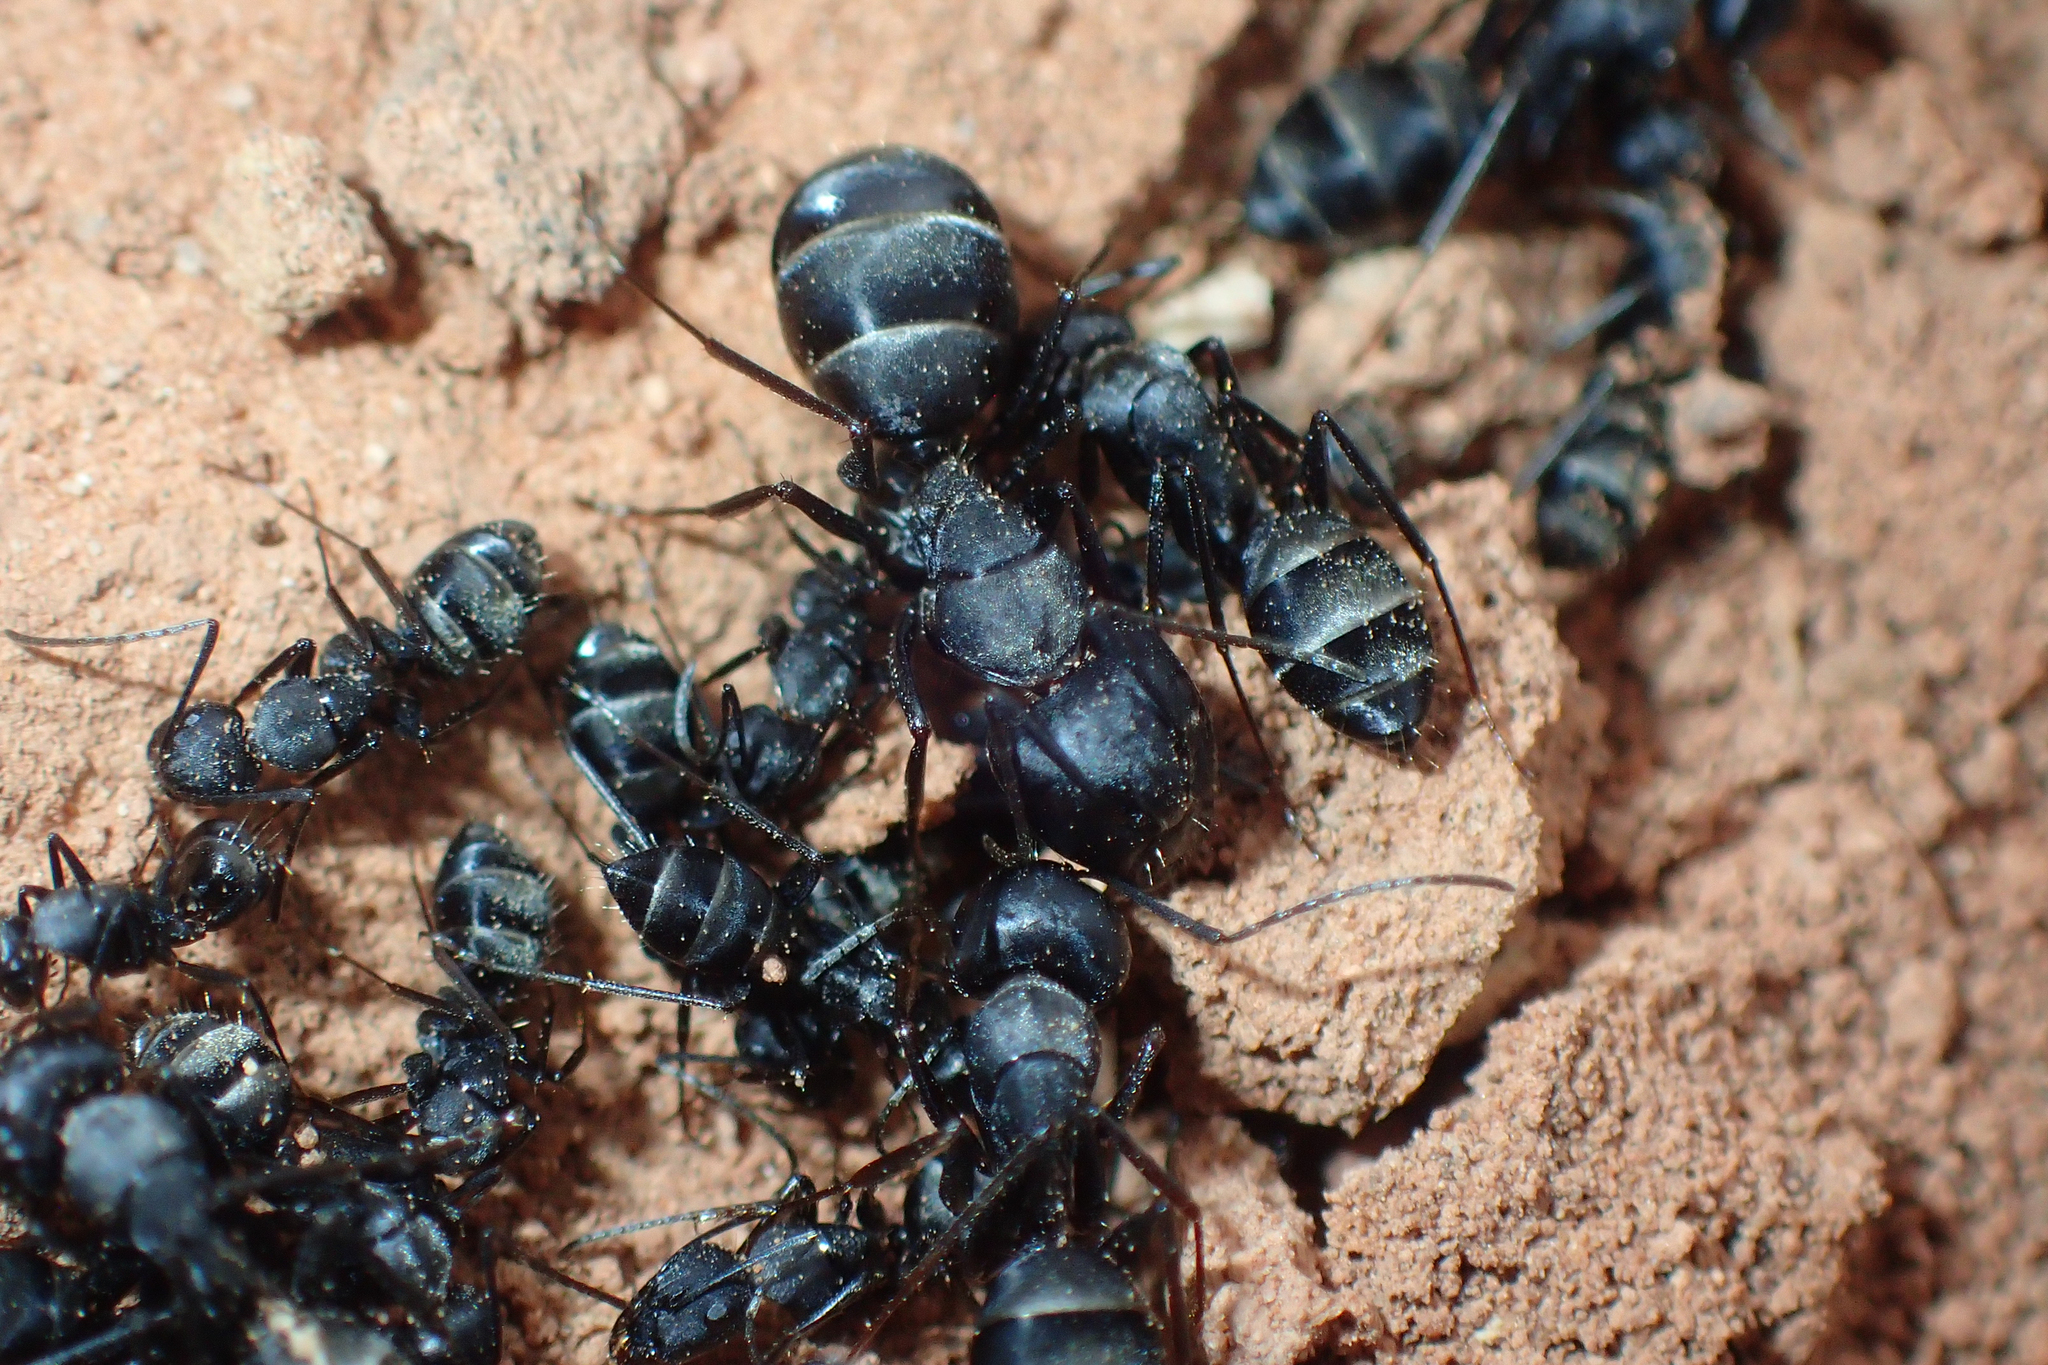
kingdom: Animalia
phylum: Arthropoda
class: Insecta
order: Hymenoptera
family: Formicidae
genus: Camponotus
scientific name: Camponotus micans
